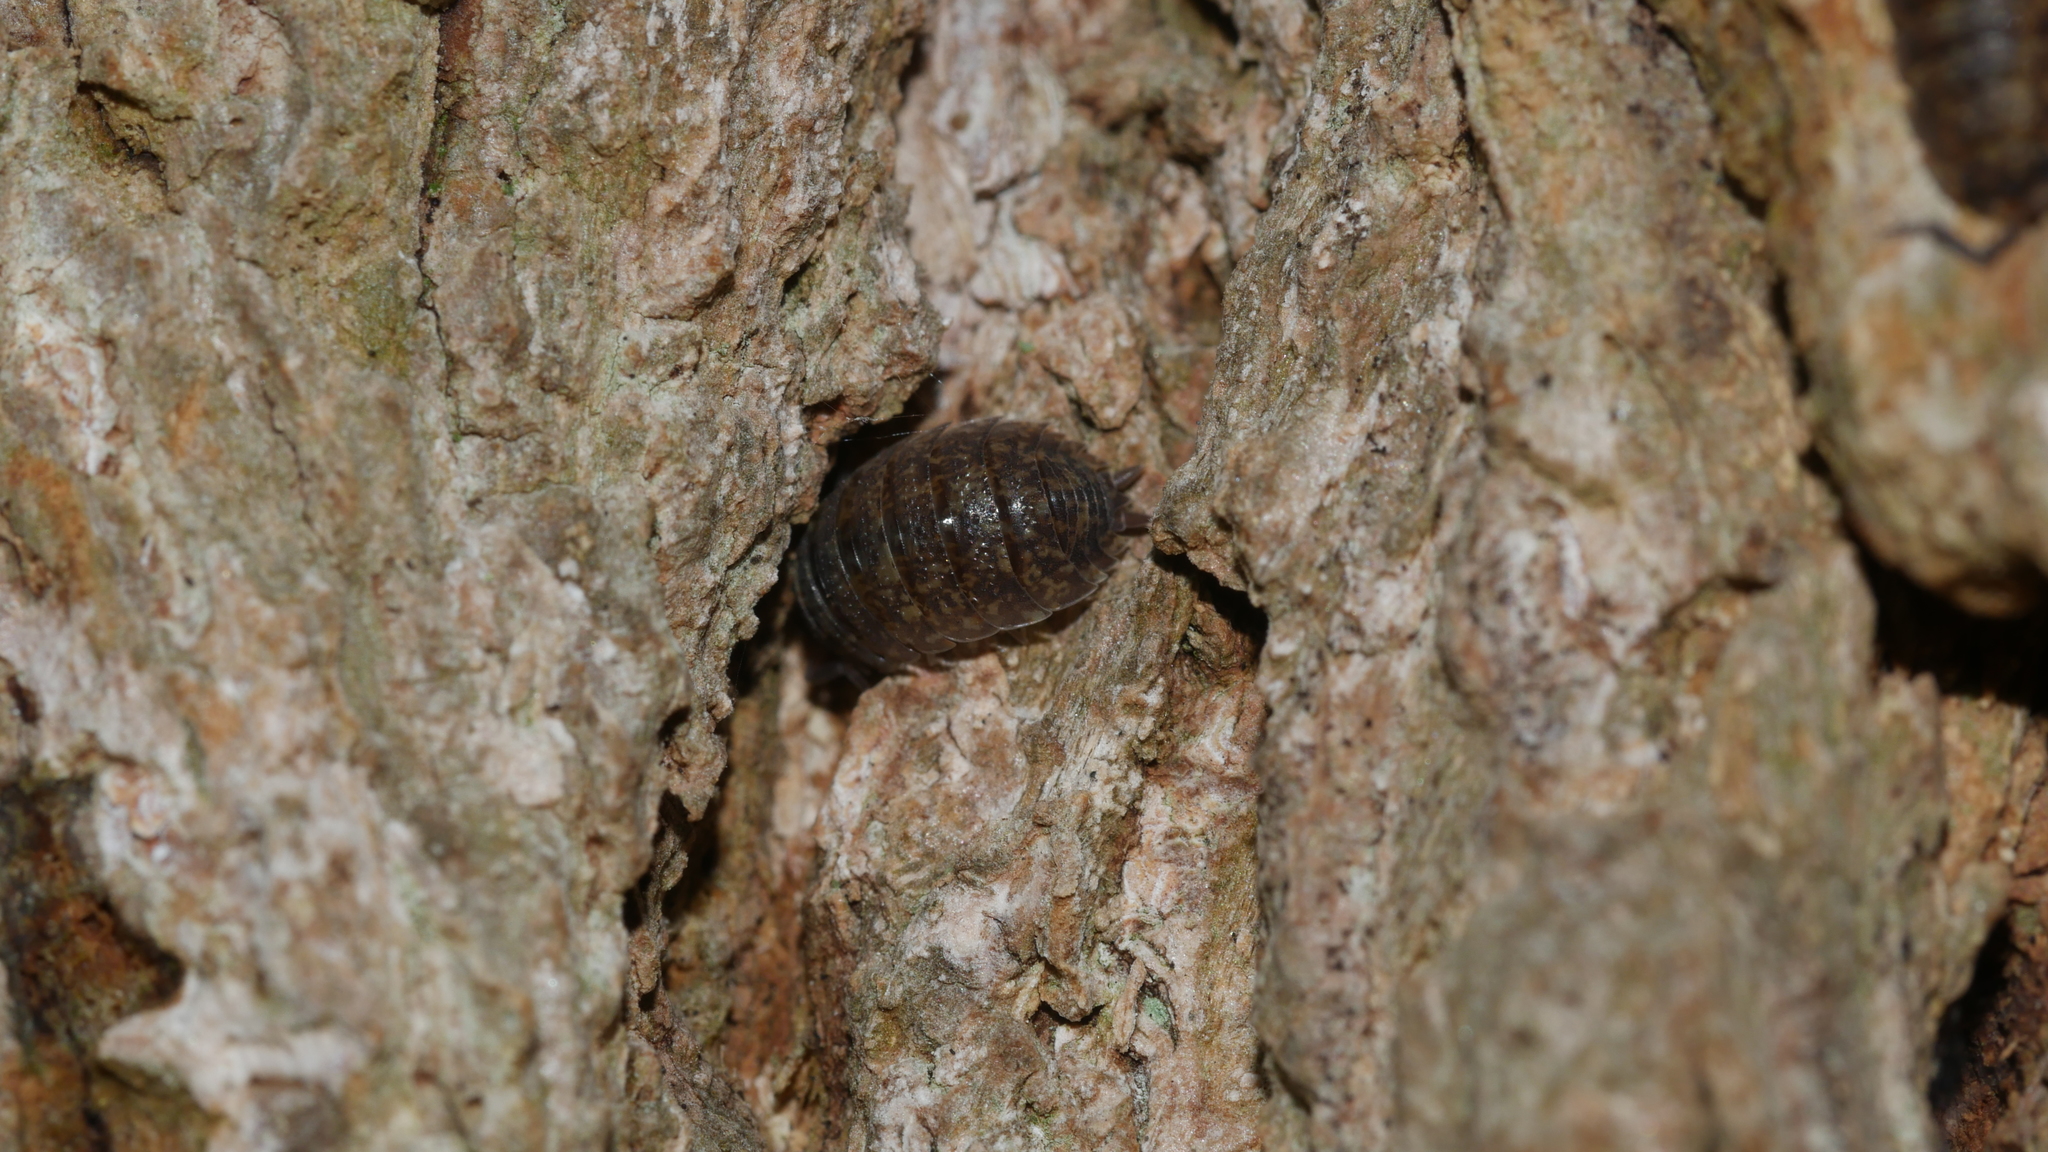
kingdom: Animalia
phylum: Arthropoda
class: Malacostraca
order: Isopoda
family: Porcellionidae
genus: Porcellio
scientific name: Porcellio scaber
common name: Common rough woodlouse
